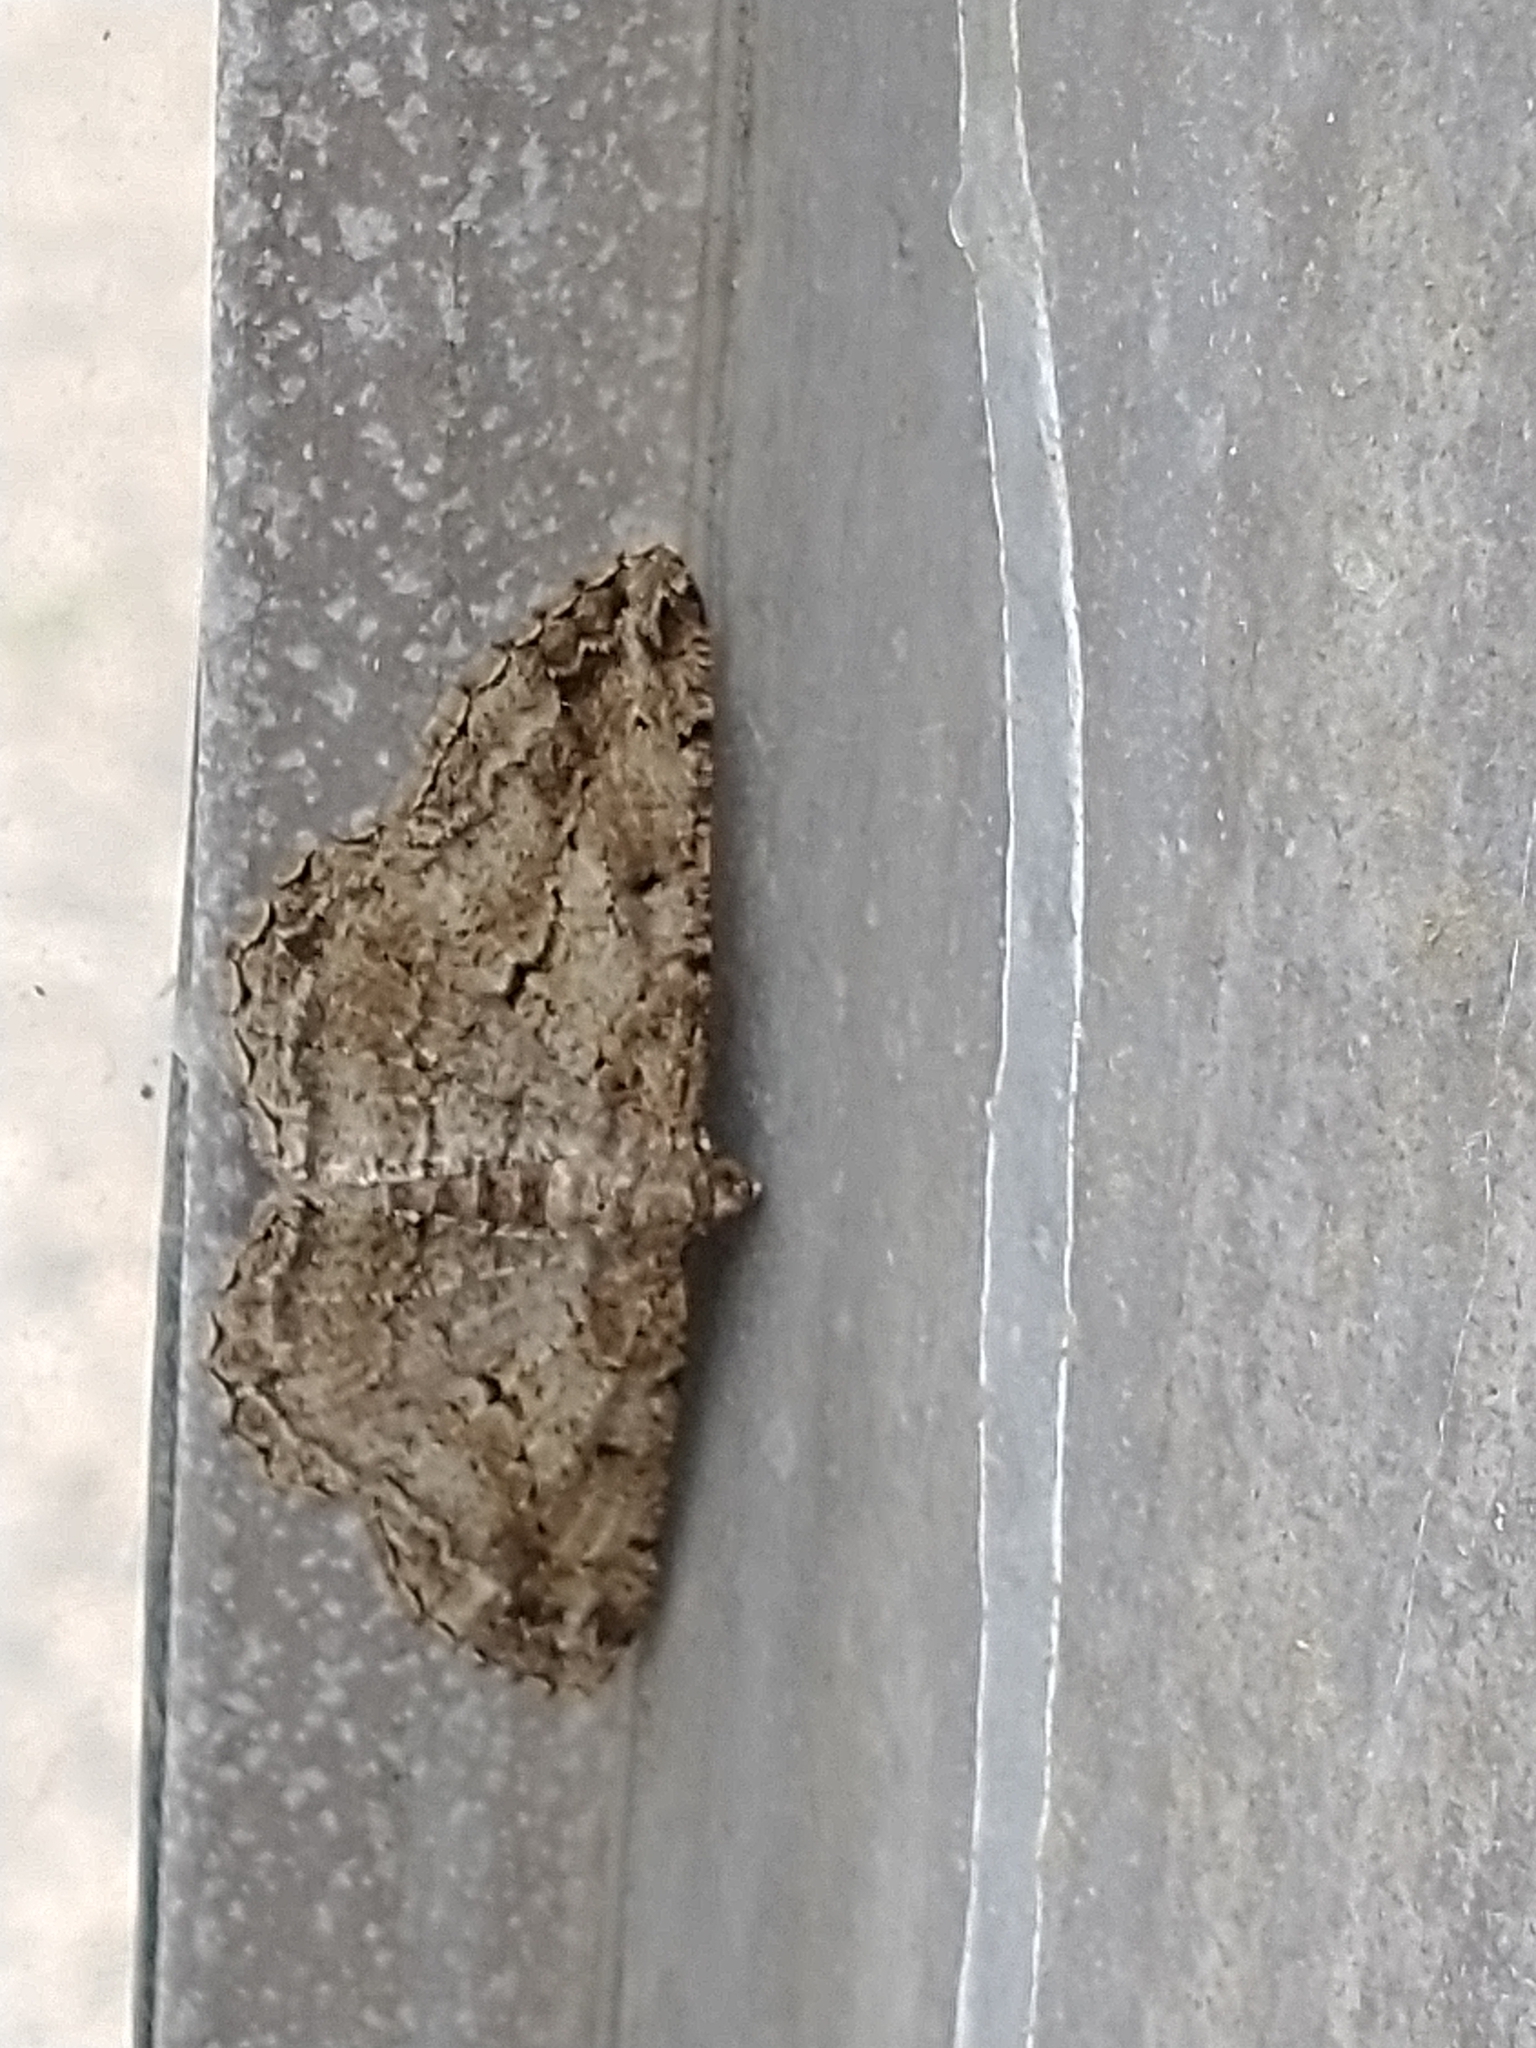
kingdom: Animalia
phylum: Arthropoda
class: Insecta
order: Lepidoptera
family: Geometridae
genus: Peribatodes
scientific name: Peribatodes rhomboidaria
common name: Willow beauty
